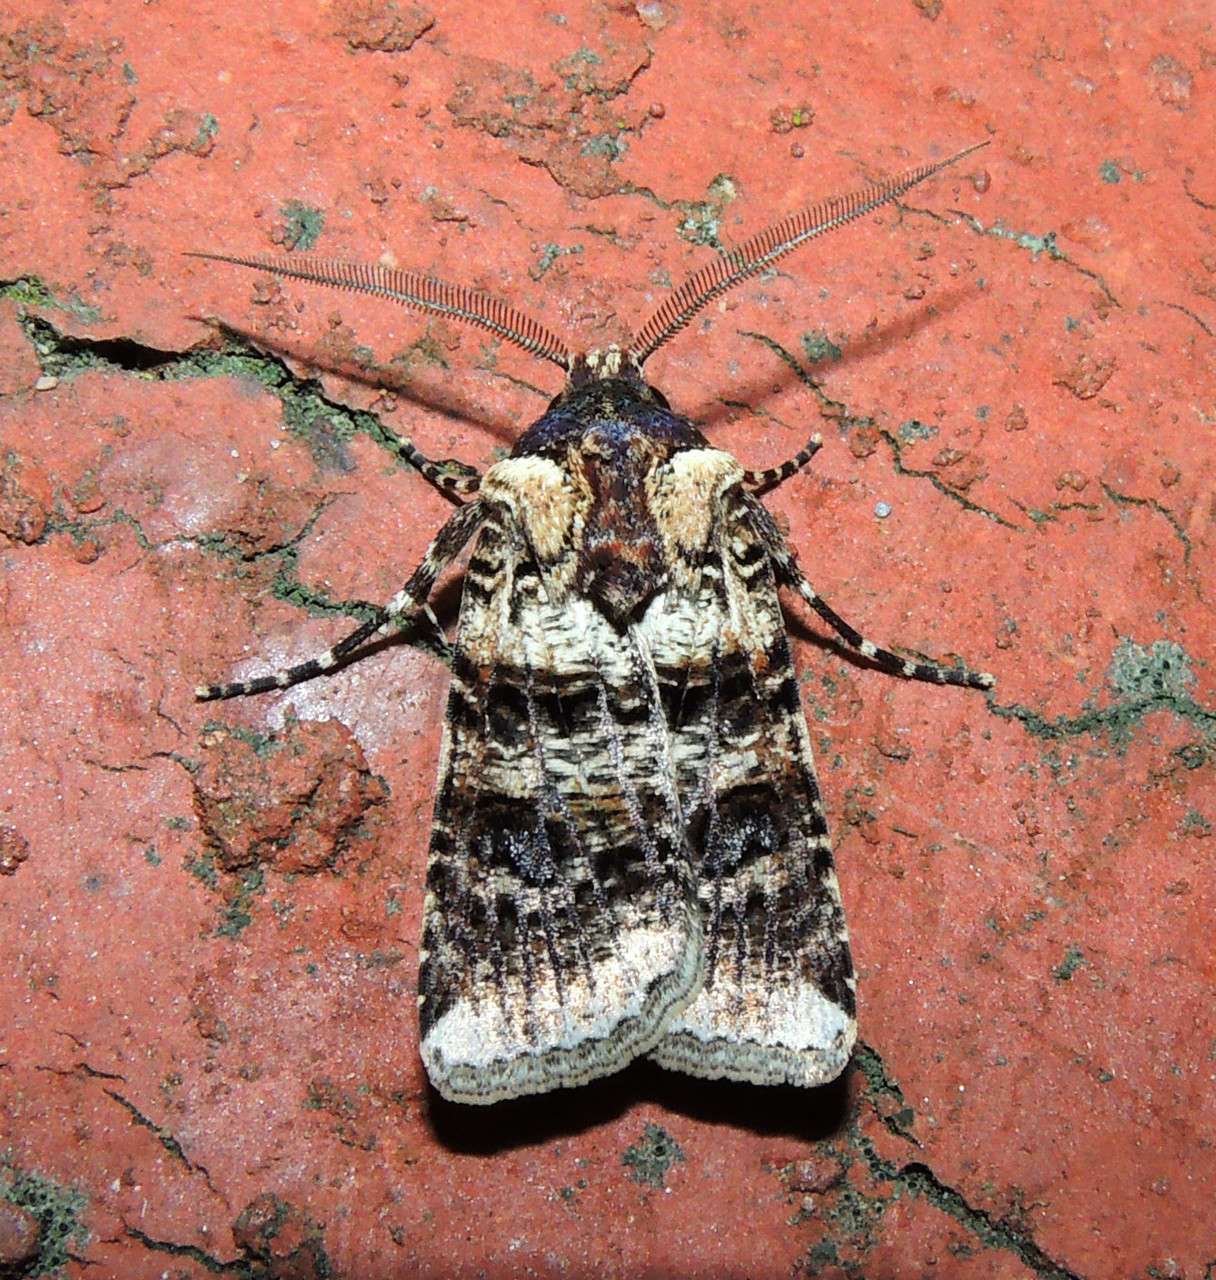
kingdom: Animalia
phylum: Arthropoda
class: Insecta
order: Lepidoptera
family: Noctuidae
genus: Agrotis
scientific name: Agrotis porphyricollis
